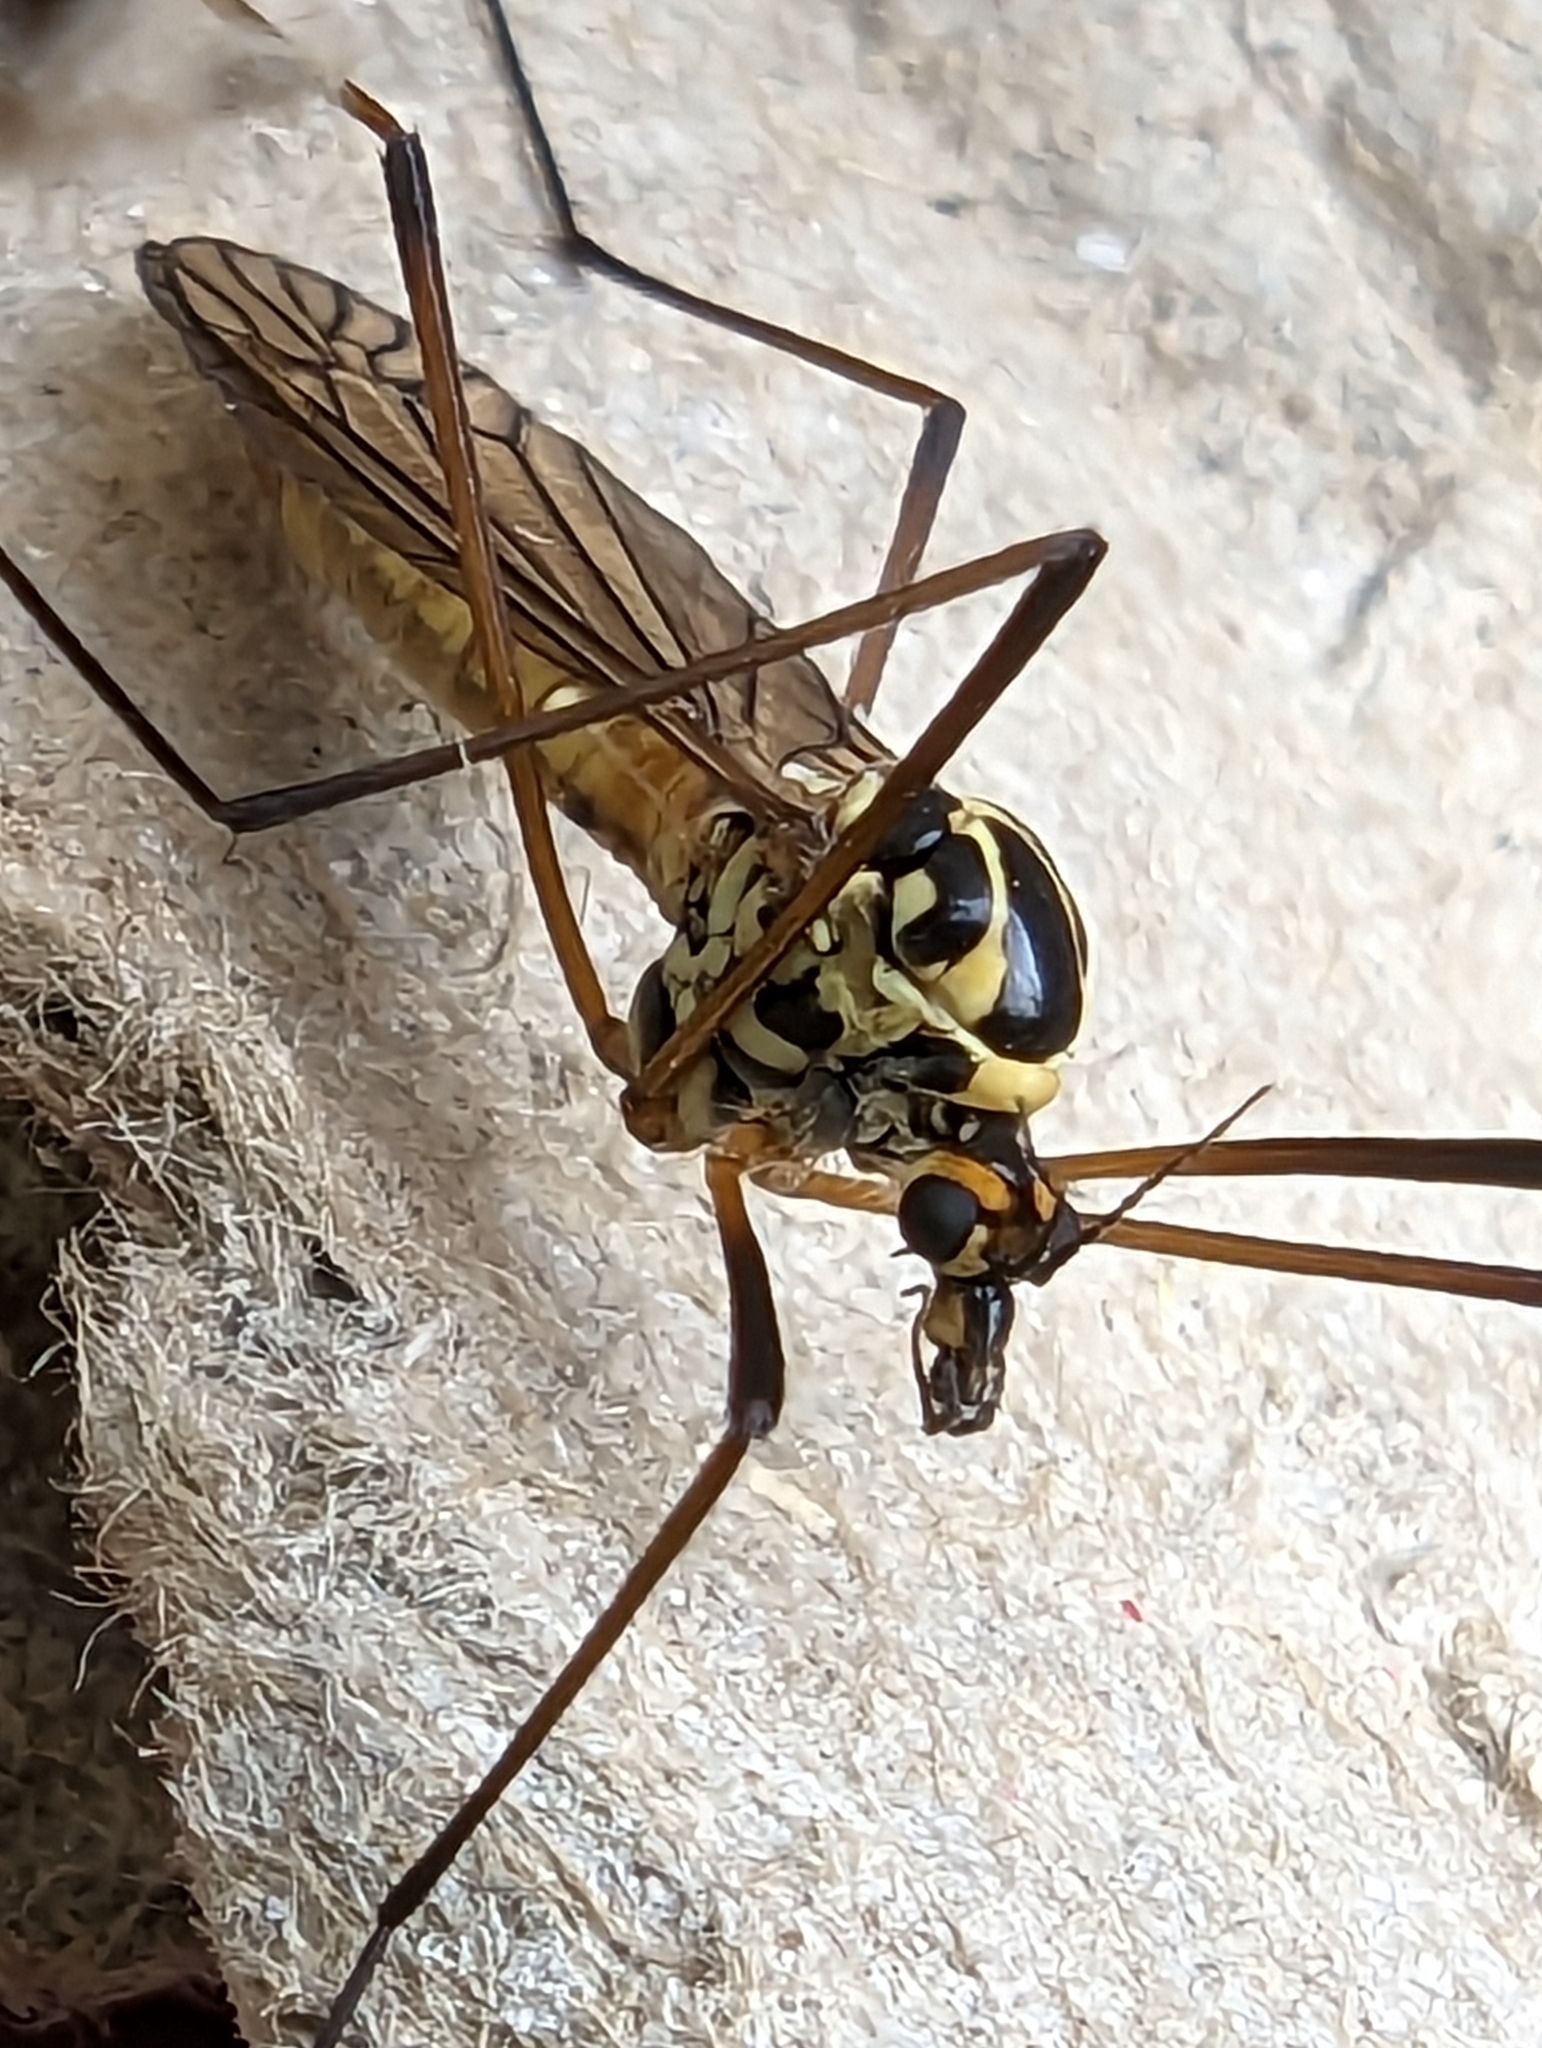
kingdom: Animalia
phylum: Arthropoda
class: Insecta
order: Diptera
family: Tipulidae
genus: Nephrotoma
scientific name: Nephrotoma appendiculata
